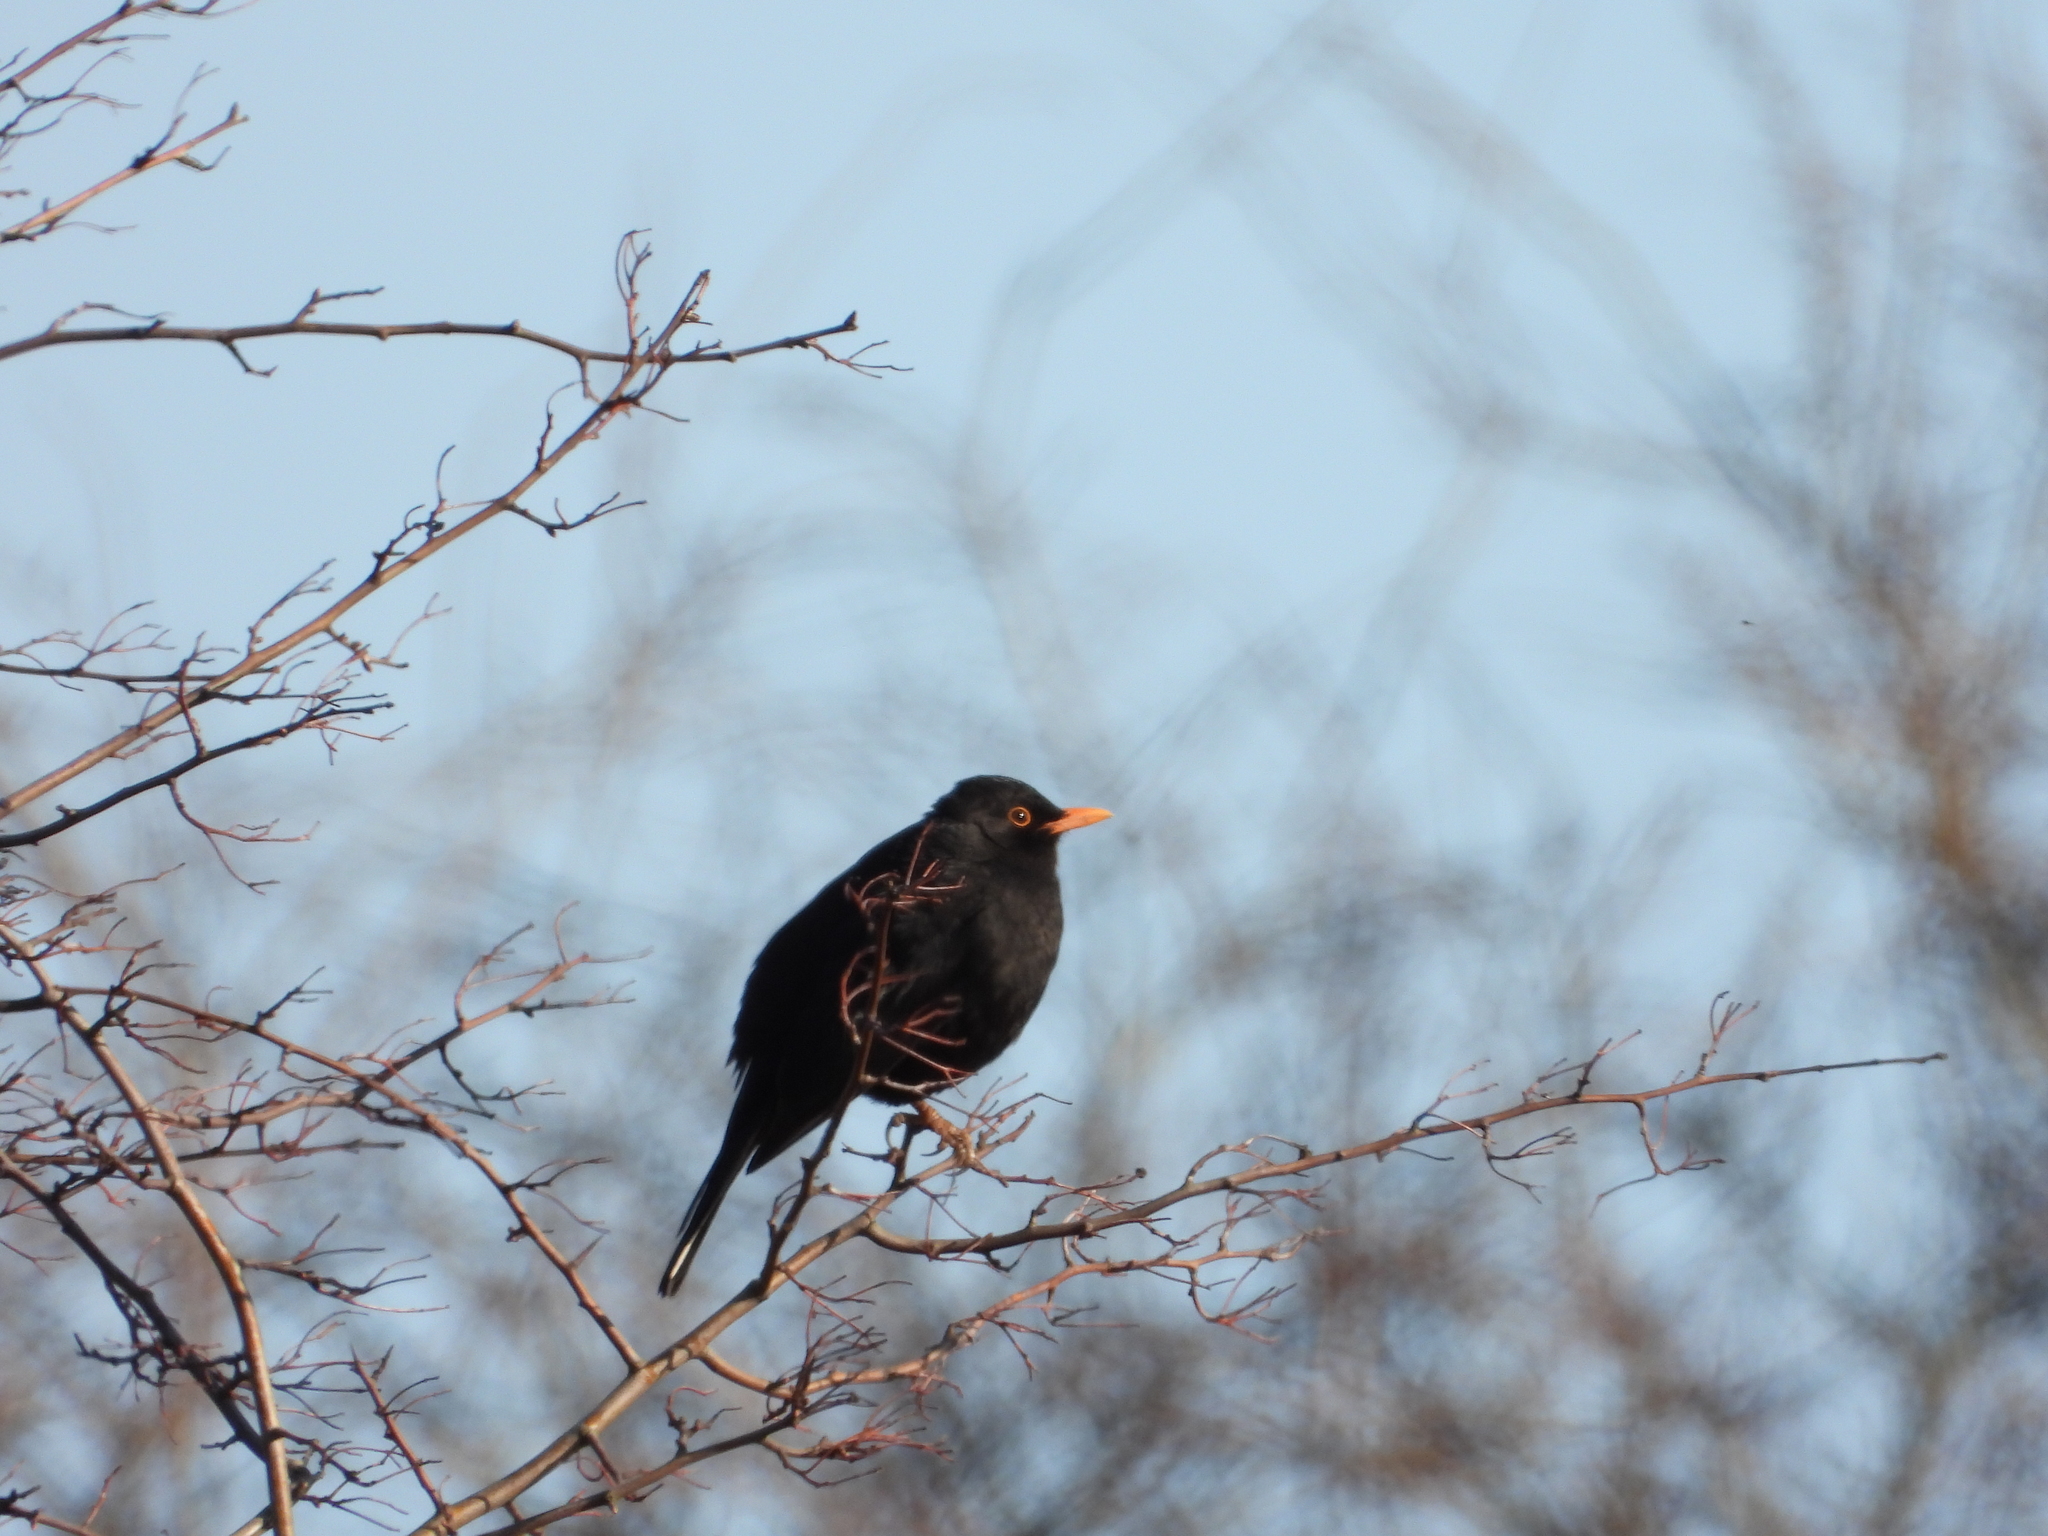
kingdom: Animalia
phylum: Chordata
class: Aves
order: Passeriformes
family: Turdidae
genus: Turdus
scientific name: Turdus merula
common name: Common blackbird
